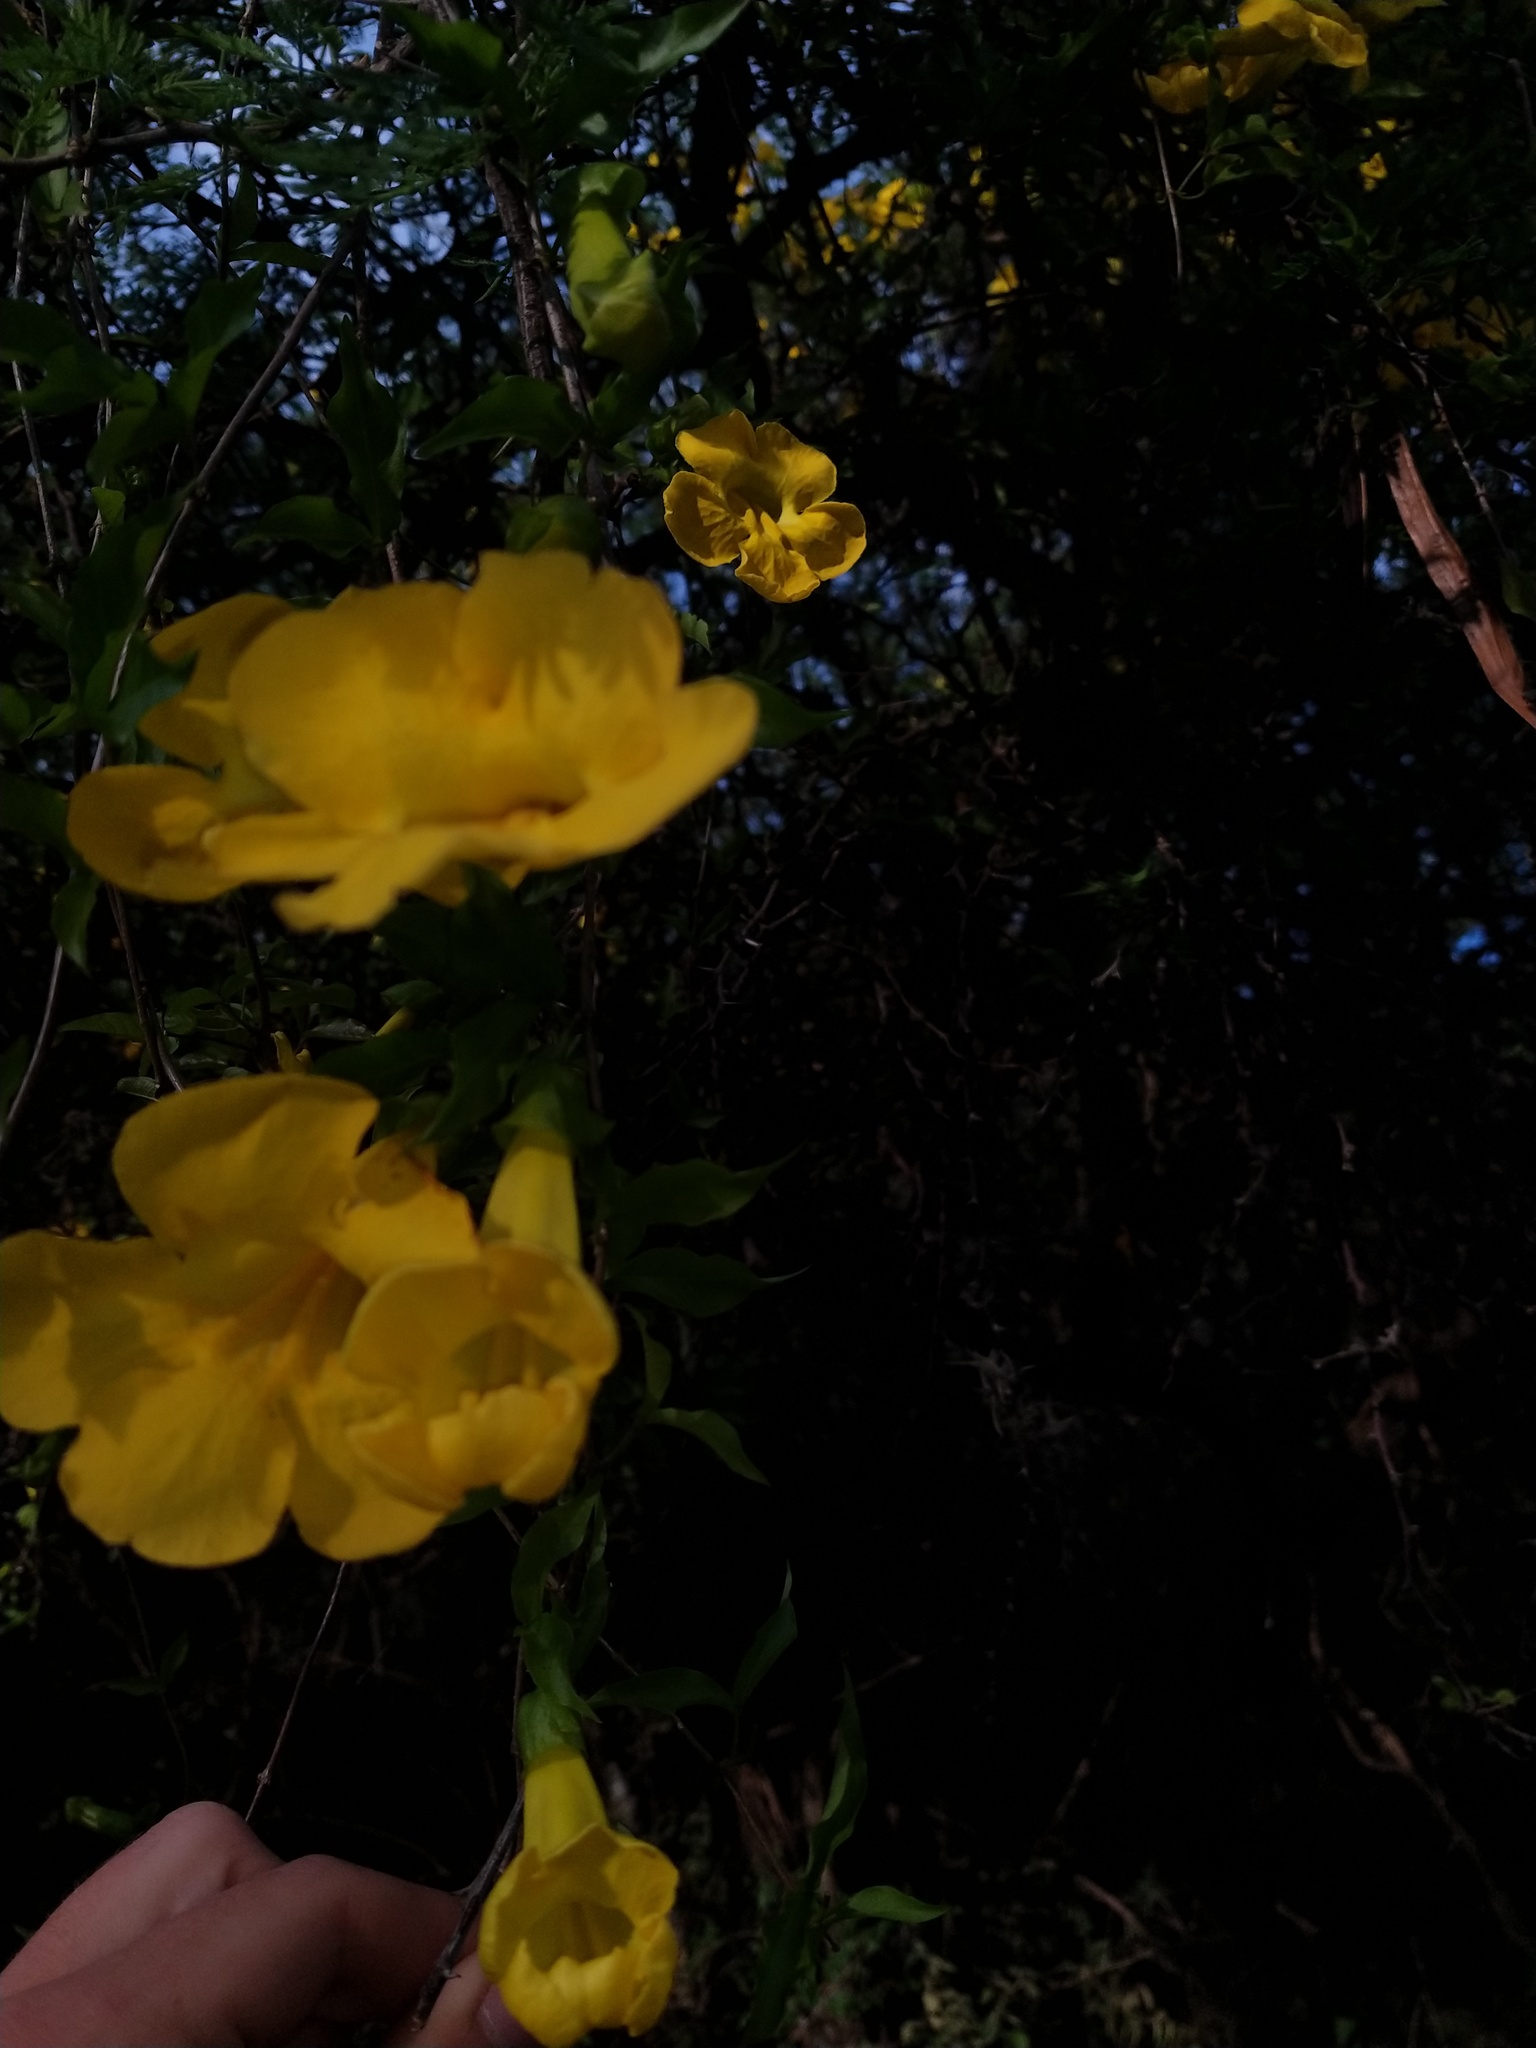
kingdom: Plantae
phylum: Tracheophyta
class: Magnoliopsida
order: Lamiales
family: Bignoniaceae
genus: Dolichandra
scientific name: Dolichandra unguis-cati
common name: Catclaw vine
